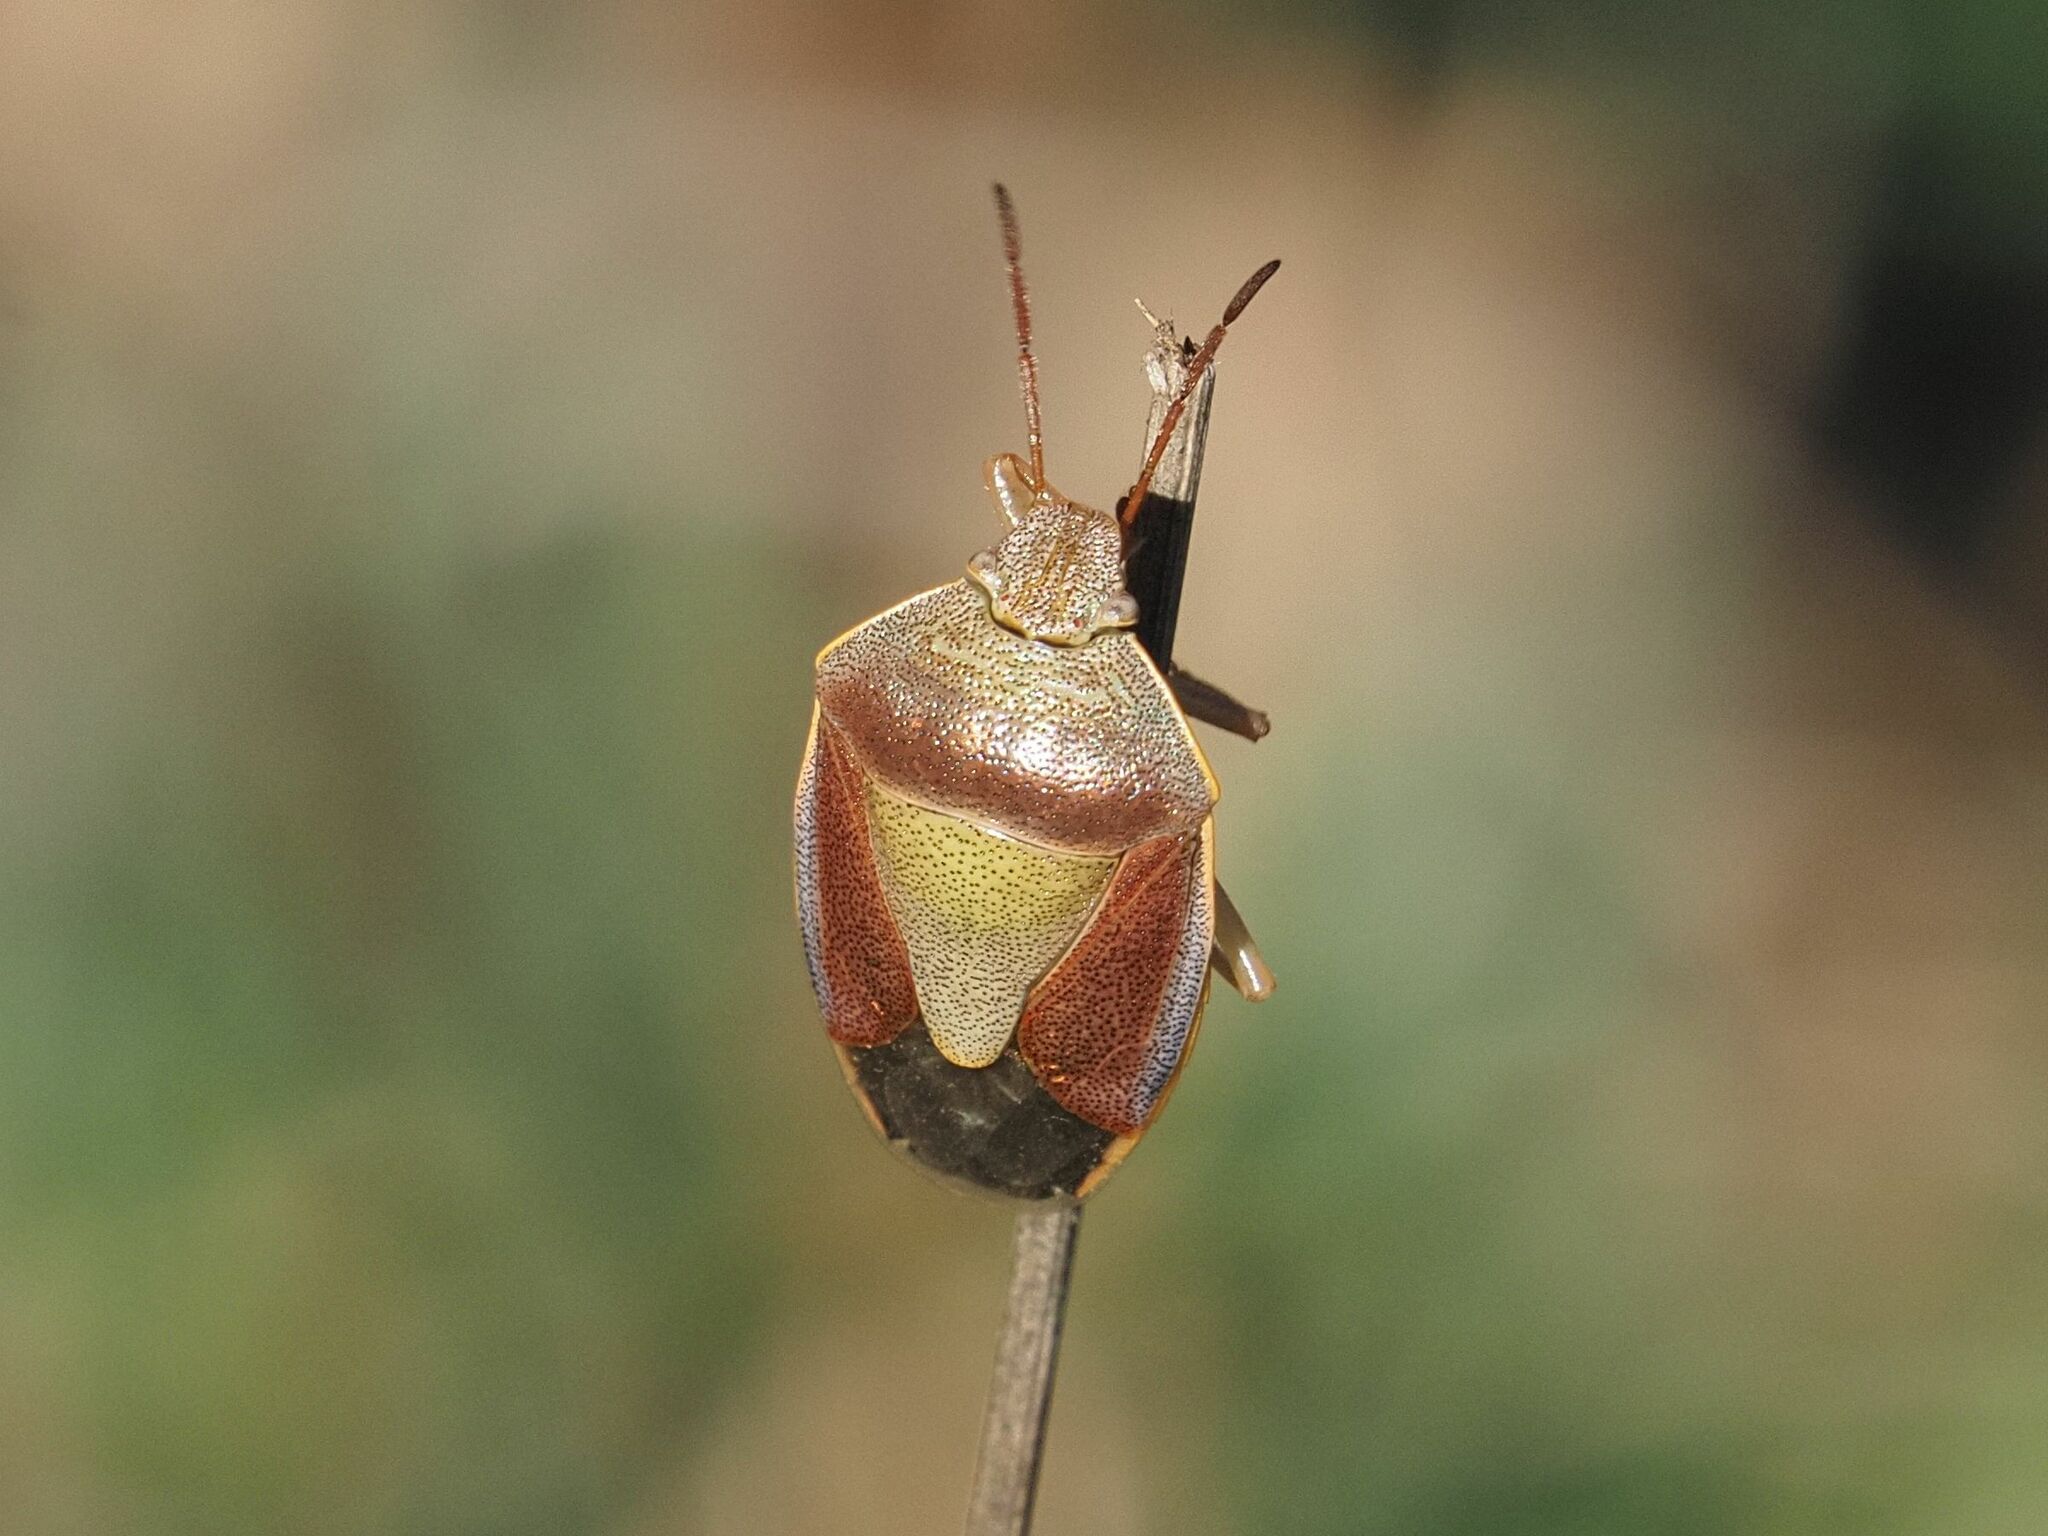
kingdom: Animalia
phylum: Arthropoda
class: Insecta
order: Hemiptera
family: Pentatomidae
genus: Piezodorus
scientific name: Piezodorus lituratus
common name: Stink bug
